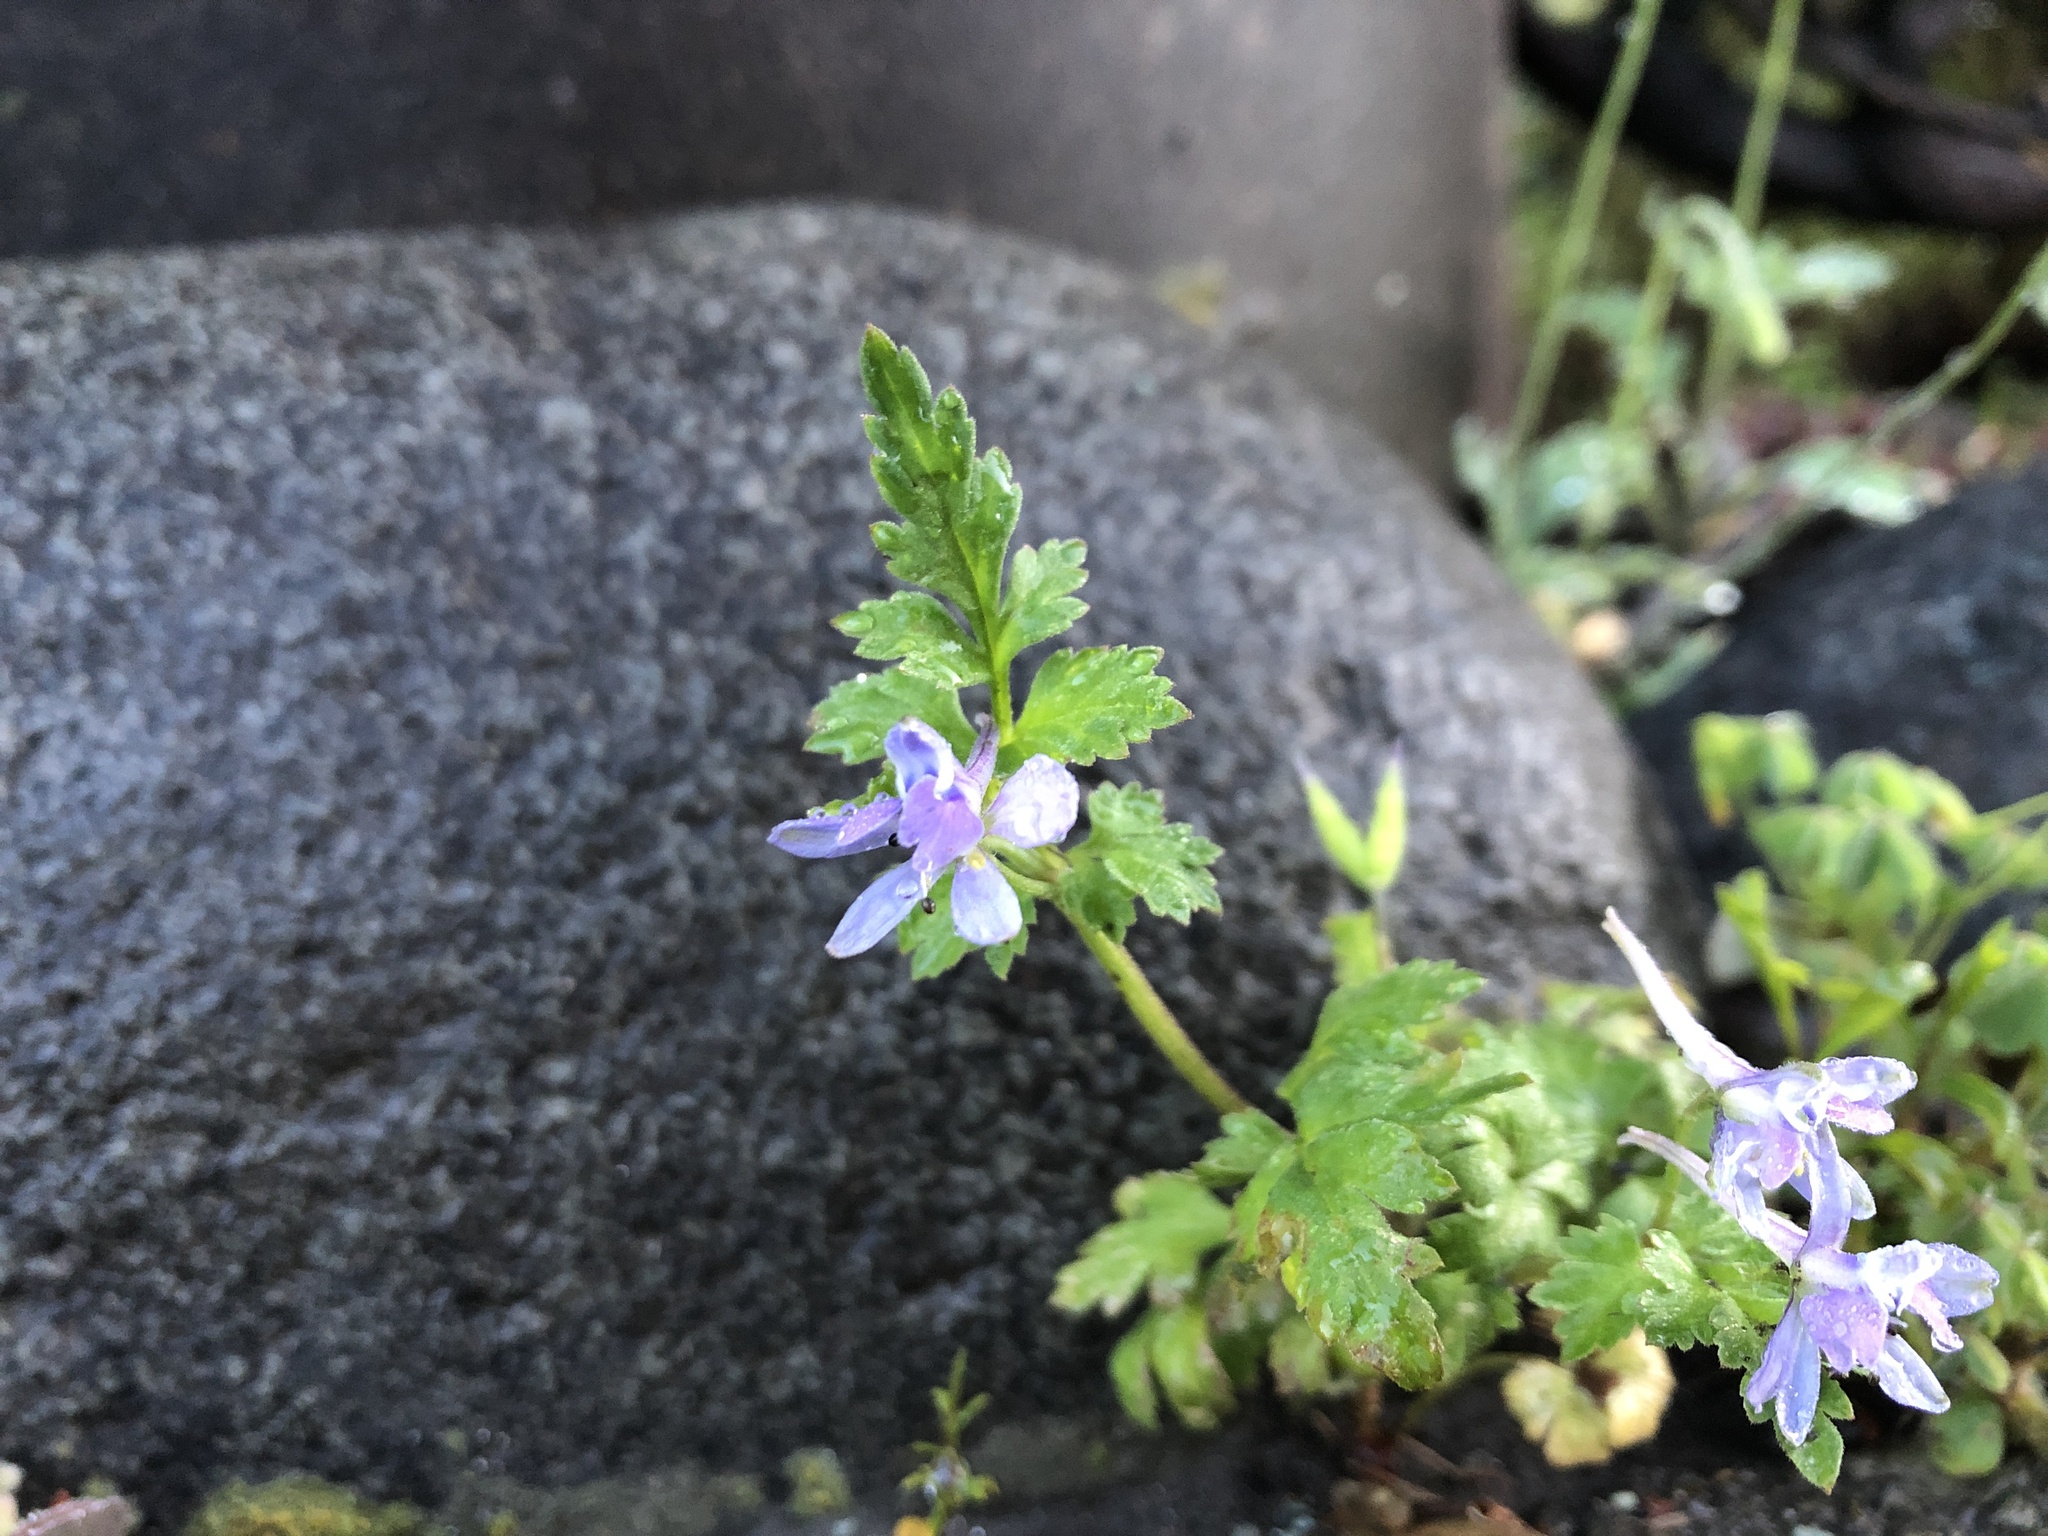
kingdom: Plantae
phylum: Tracheophyta
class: Magnoliopsida
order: Ranunculales
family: Ranunculaceae
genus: Delphinium
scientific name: Delphinium anthriscifolium
